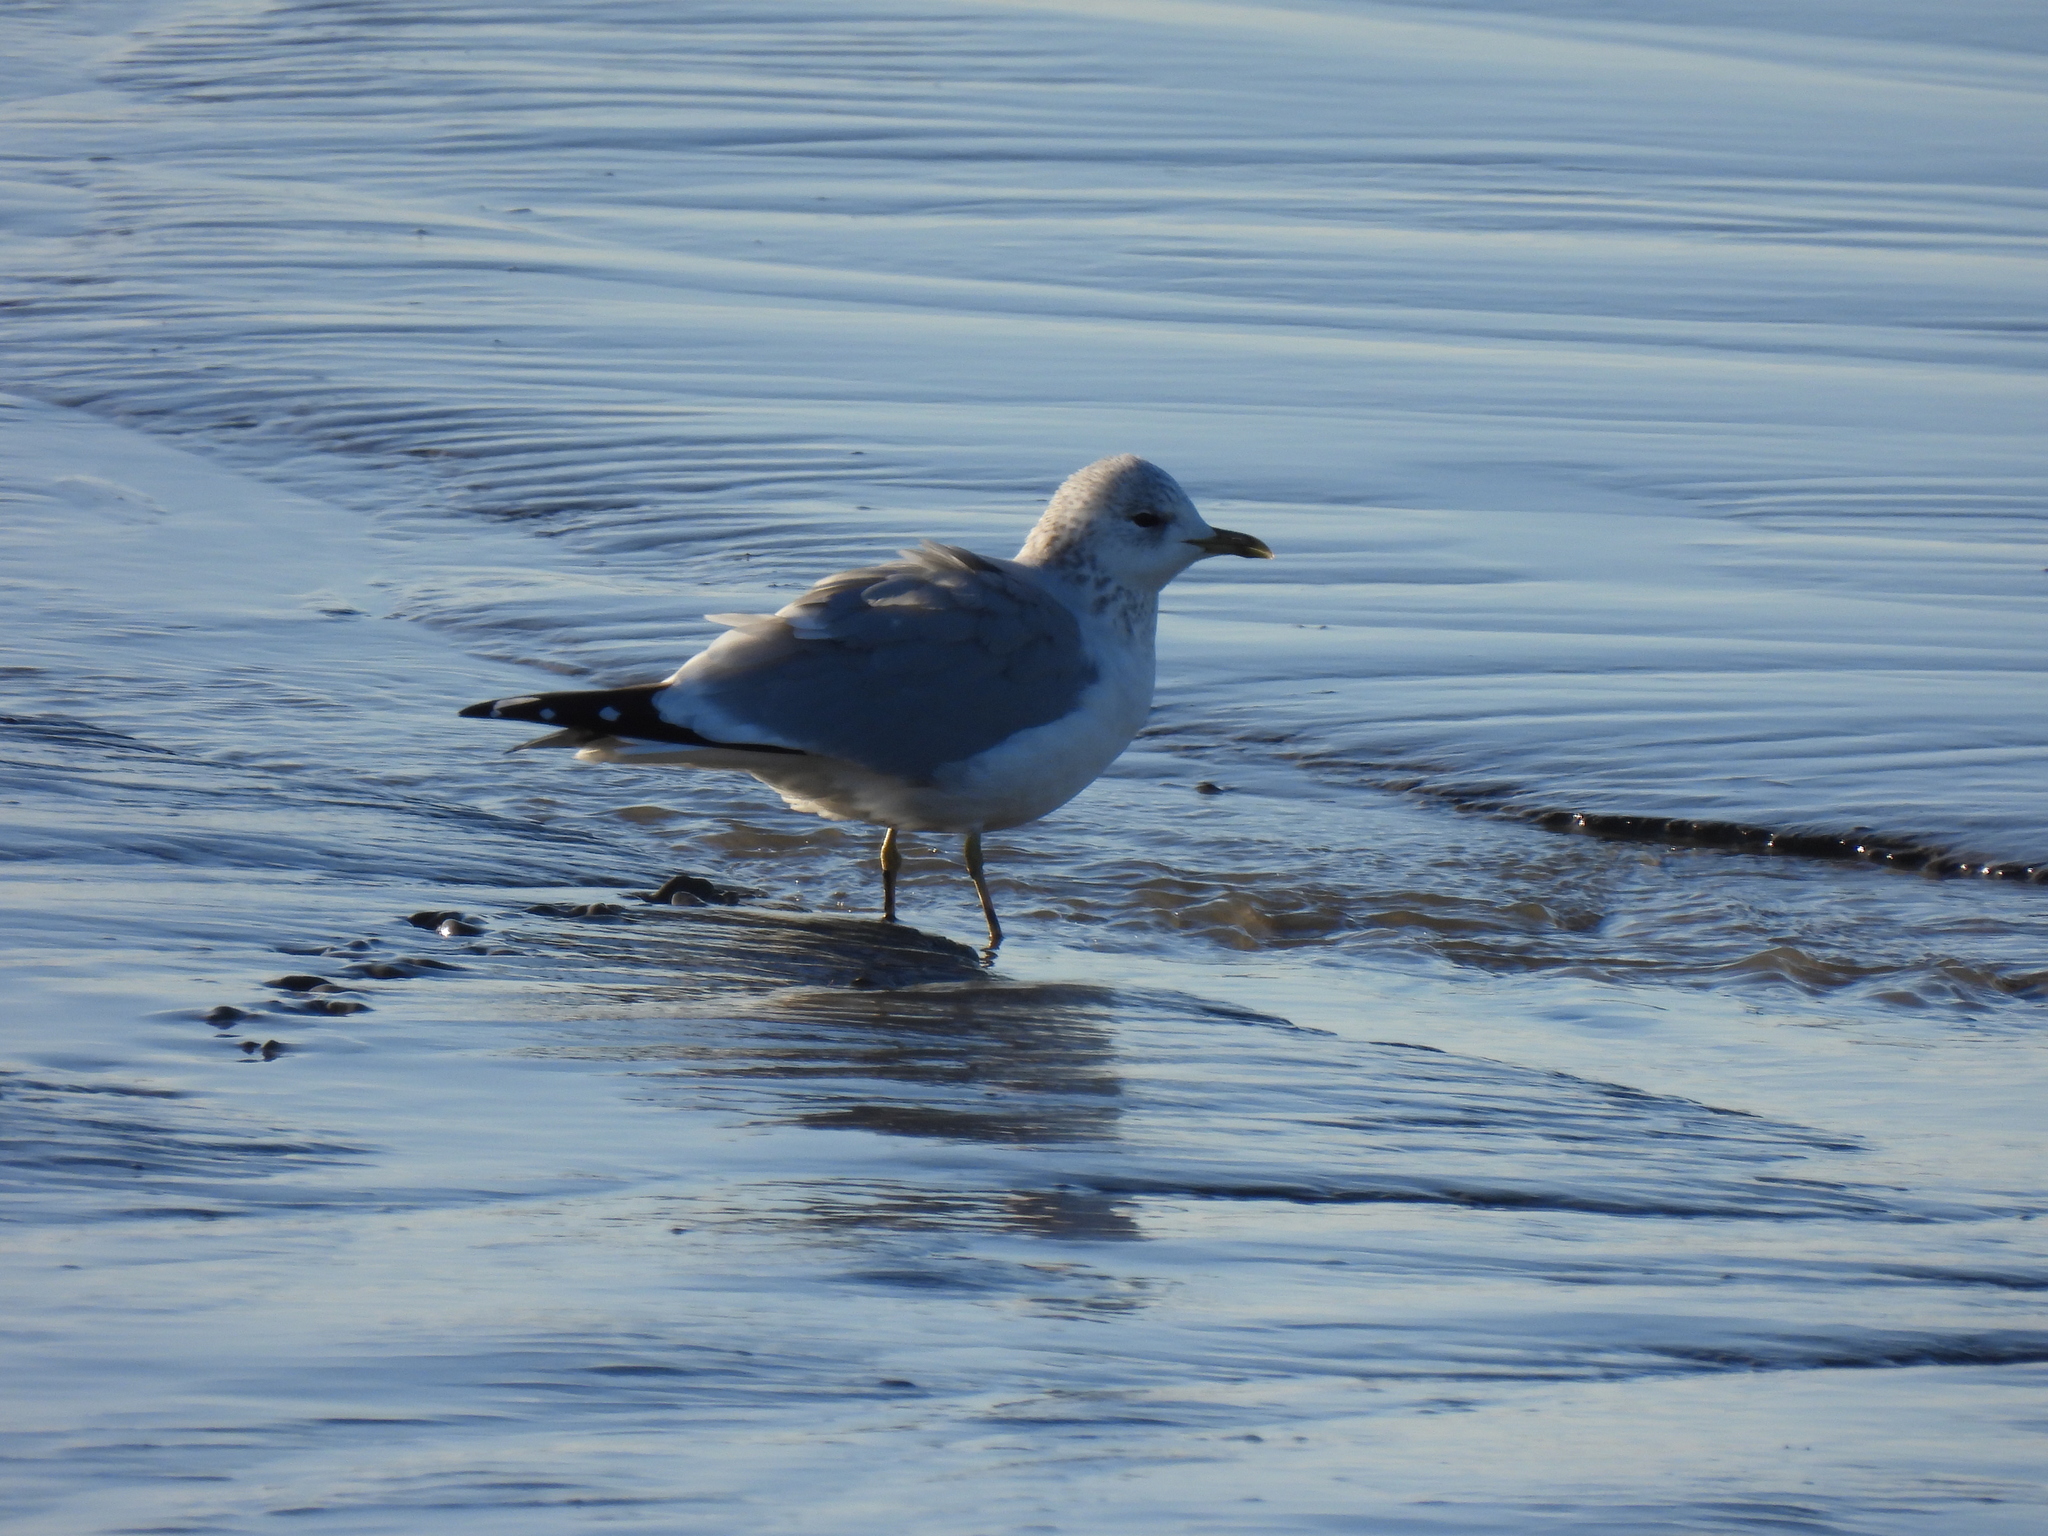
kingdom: Animalia
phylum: Chordata
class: Aves
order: Charadriiformes
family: Laridae
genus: Larus
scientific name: Larus canus
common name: Mew gull
